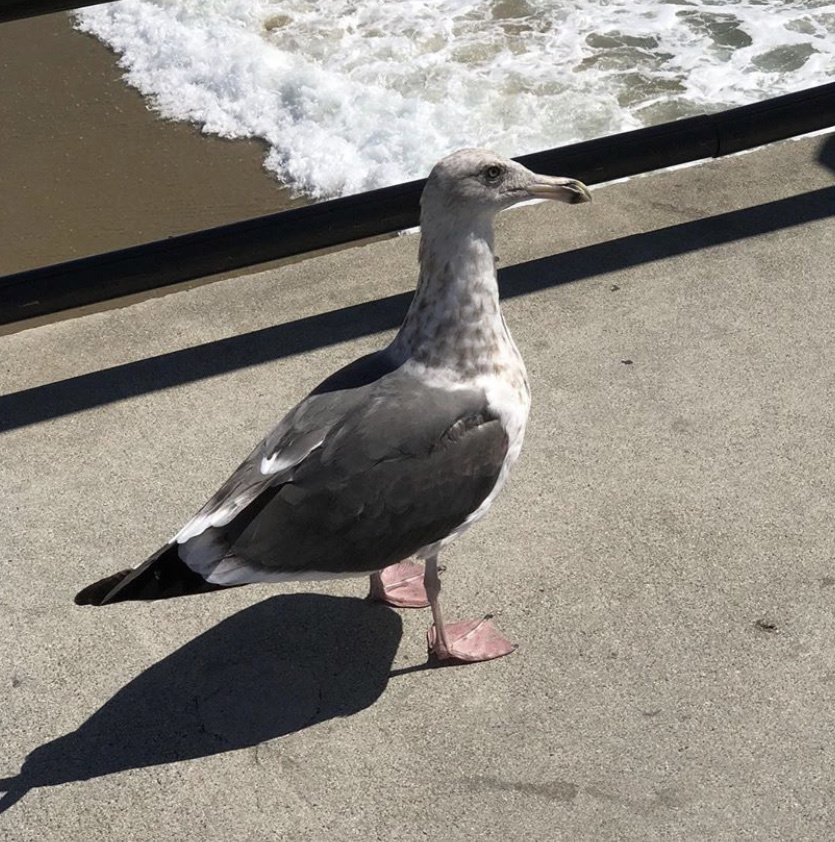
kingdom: Animalia
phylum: Chordata
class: Aves
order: Charadriiformes
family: Laridae
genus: Larus
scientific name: Larus occidentalis
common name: Western gull
